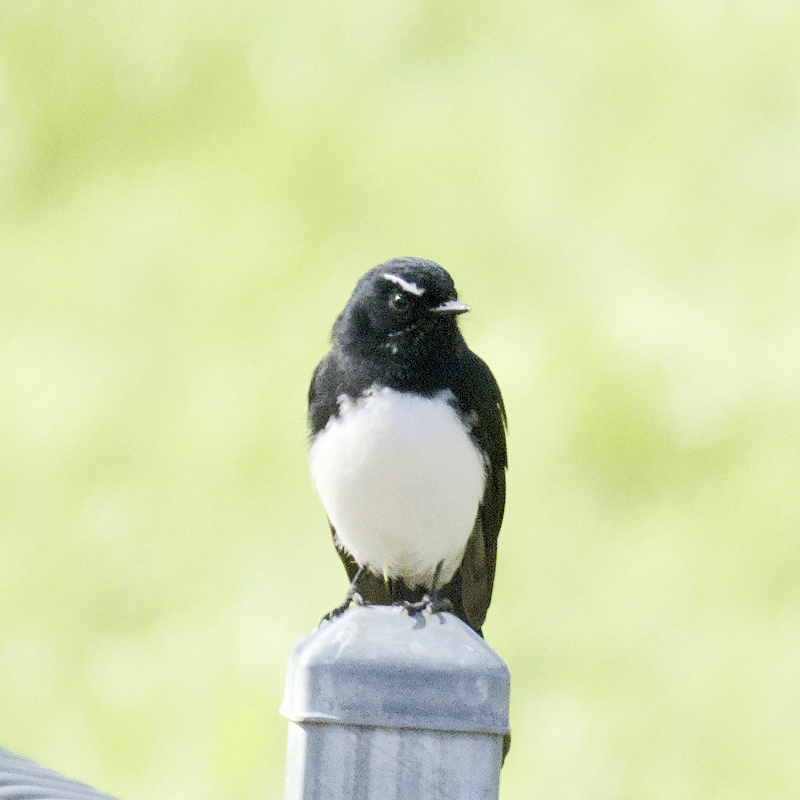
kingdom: Animalia
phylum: Chordata
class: Aves
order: Passeriformes
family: Rhipiduridae
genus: Rhipidura
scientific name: Rhipidura leucophrys
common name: Willie wagtail
